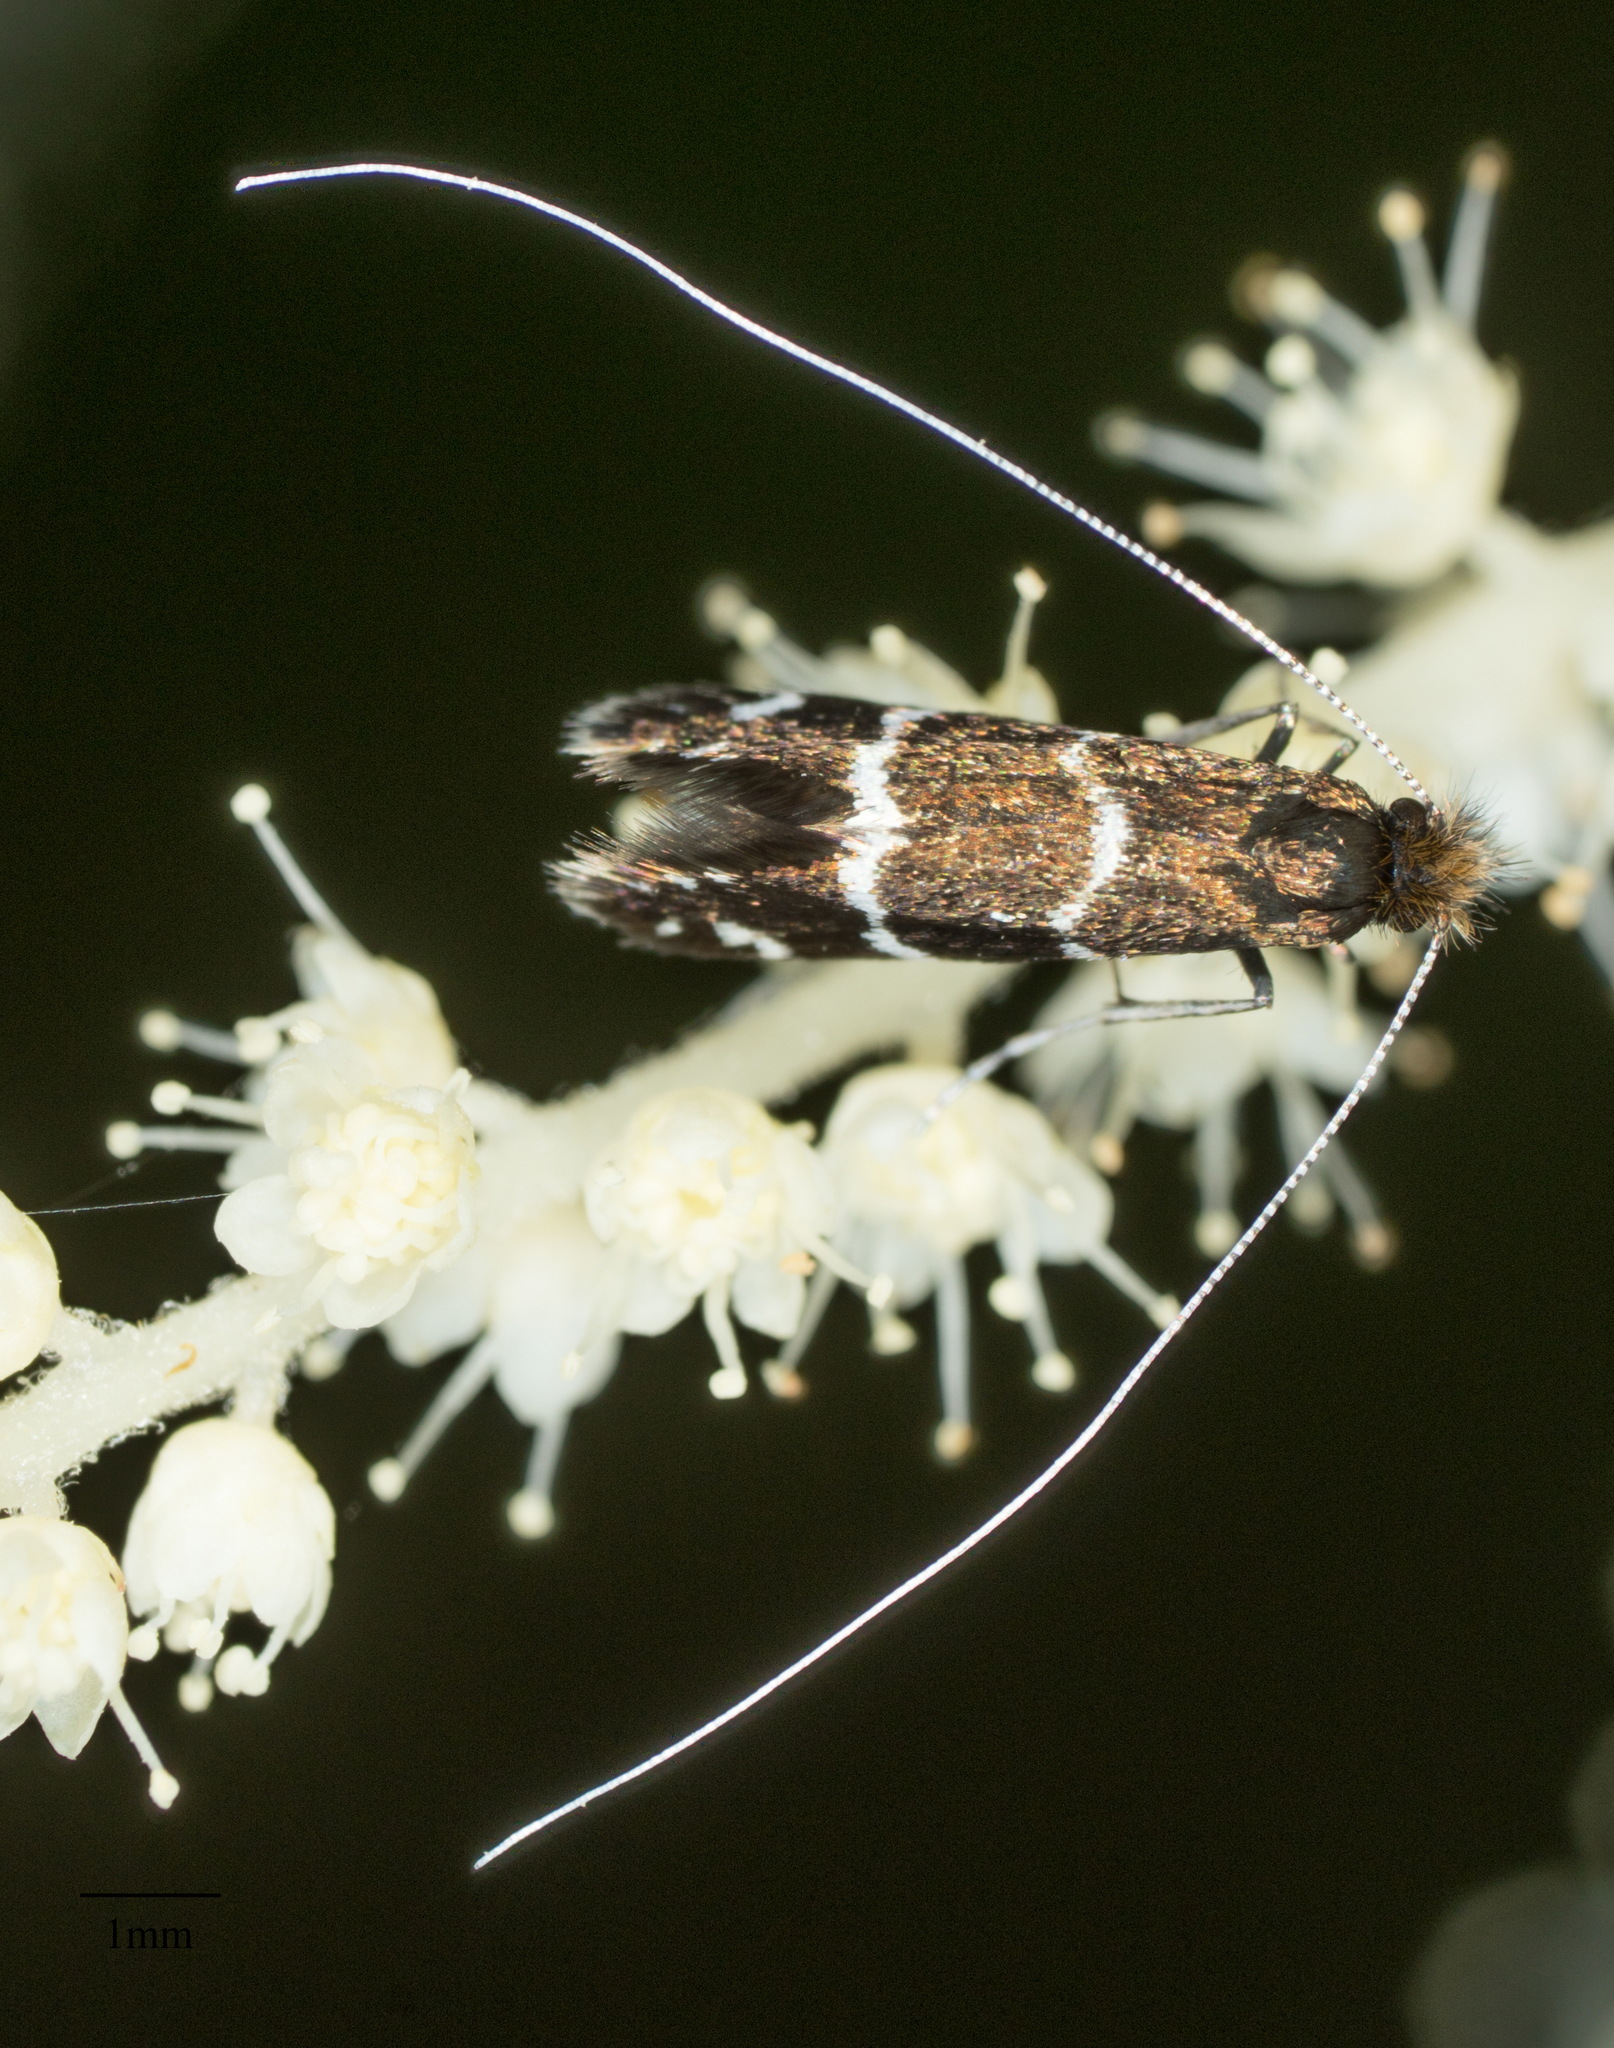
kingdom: Animalia
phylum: Arthropoda
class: Insecta
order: Lepidoptera
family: Adelidae
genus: Adela
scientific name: Adela septentrionella
